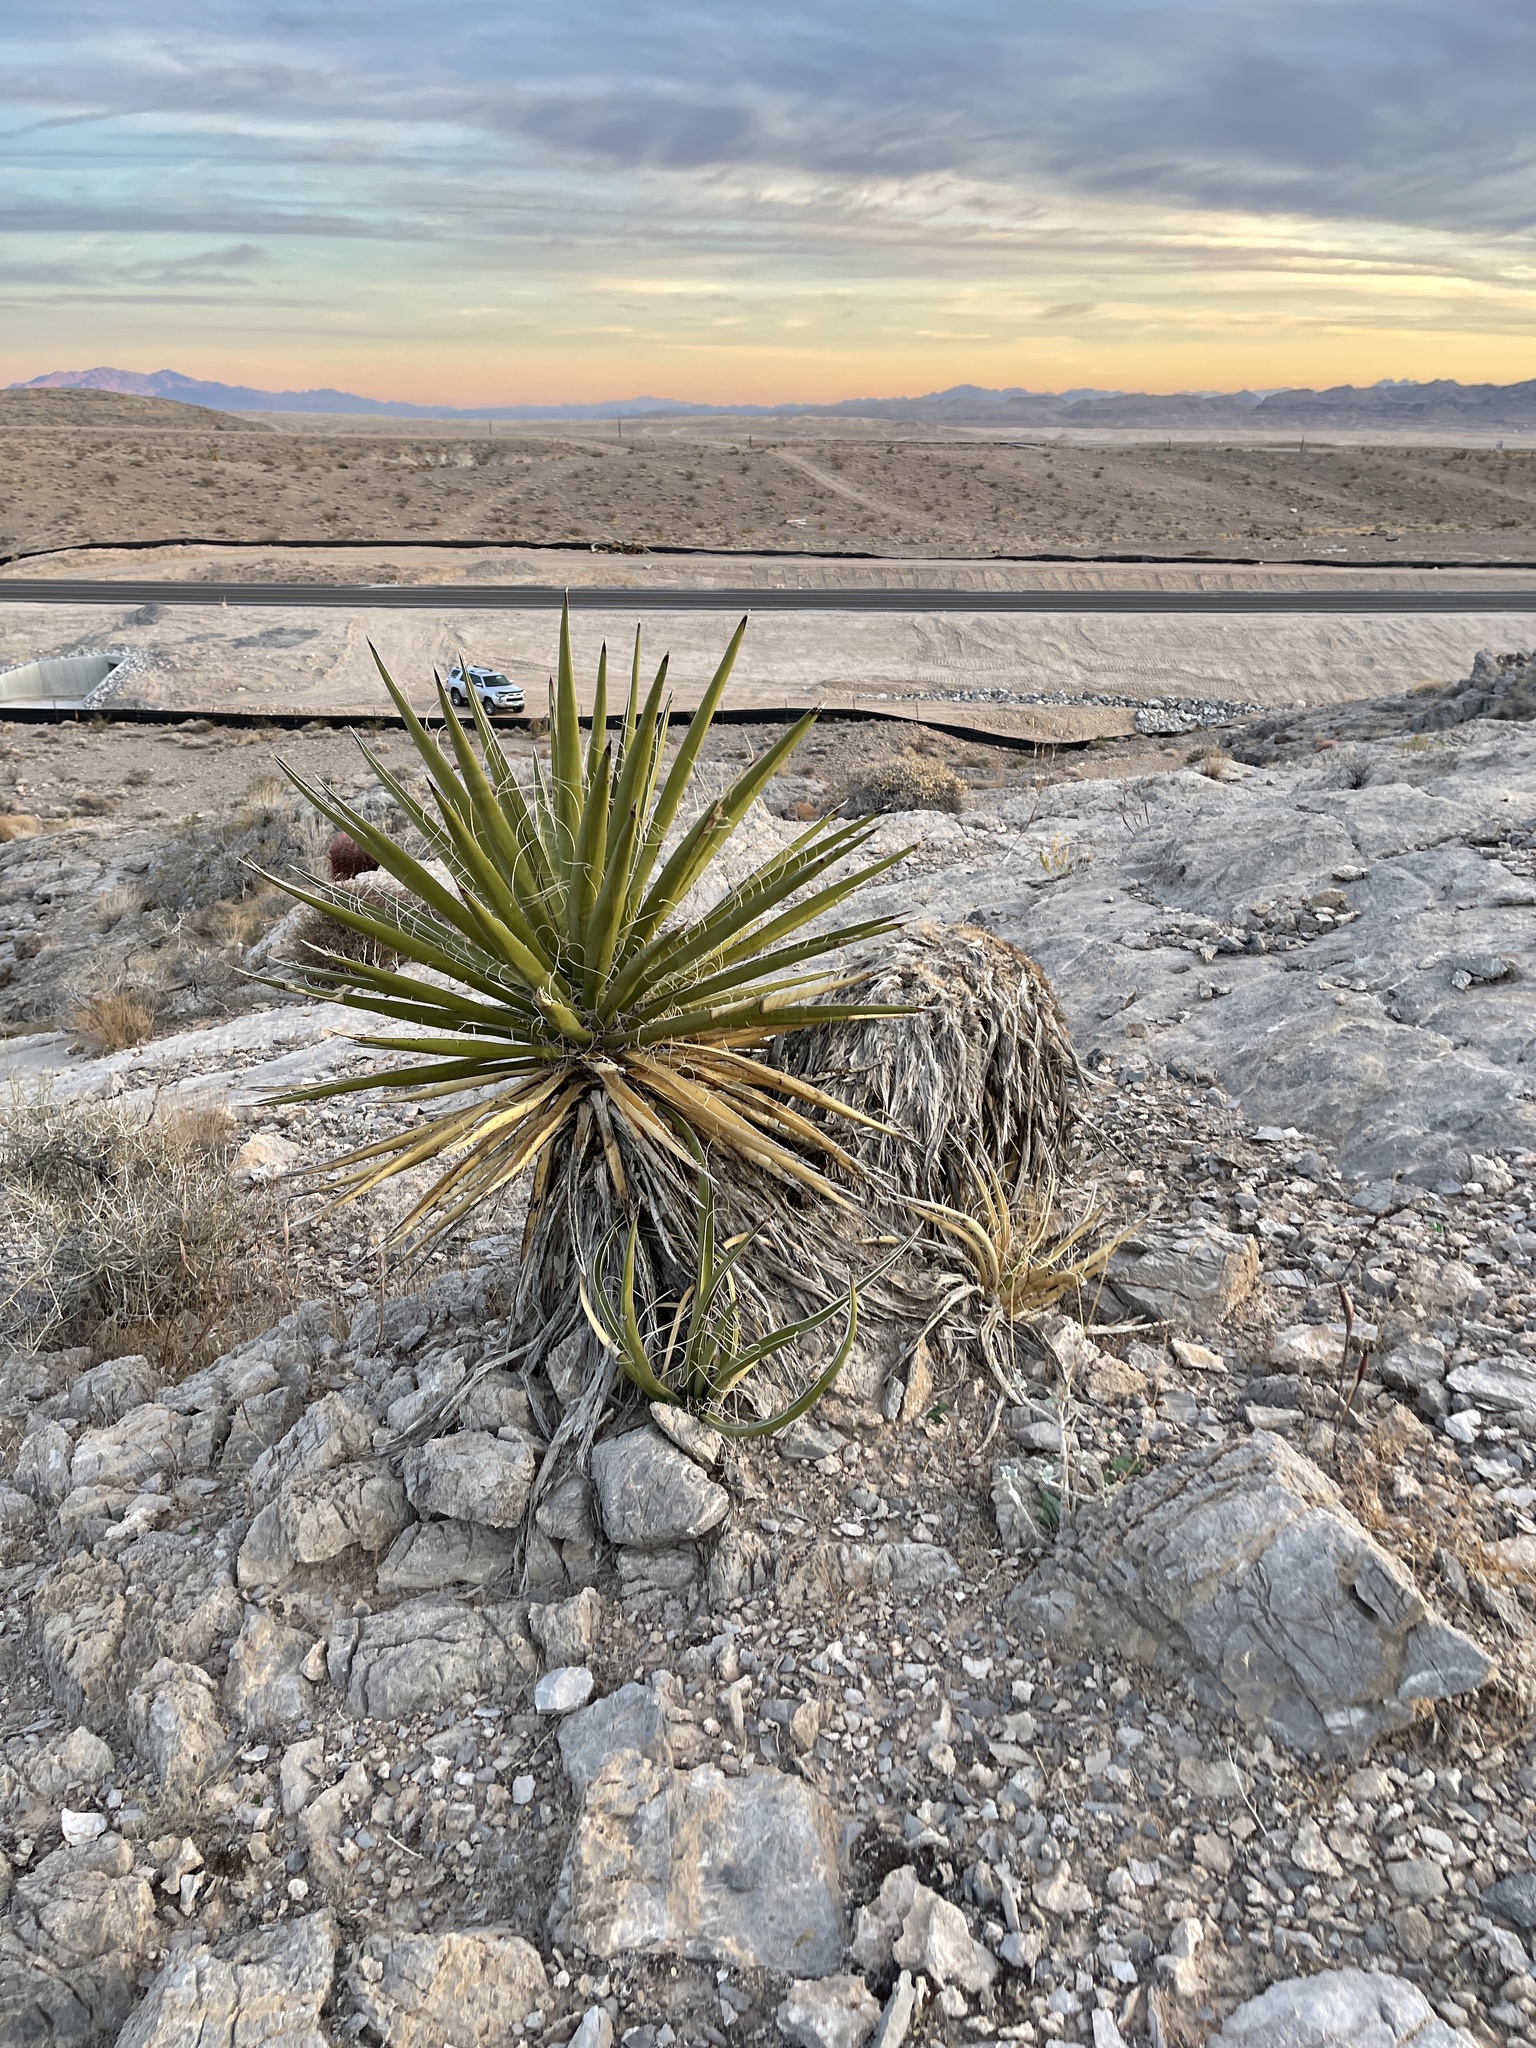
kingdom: Plantae
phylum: Tracheophyta
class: Liliopsida
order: Asparagales
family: Asparagaceae
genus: Yucca
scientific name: Yucca schidigera
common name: Mojave yucca
